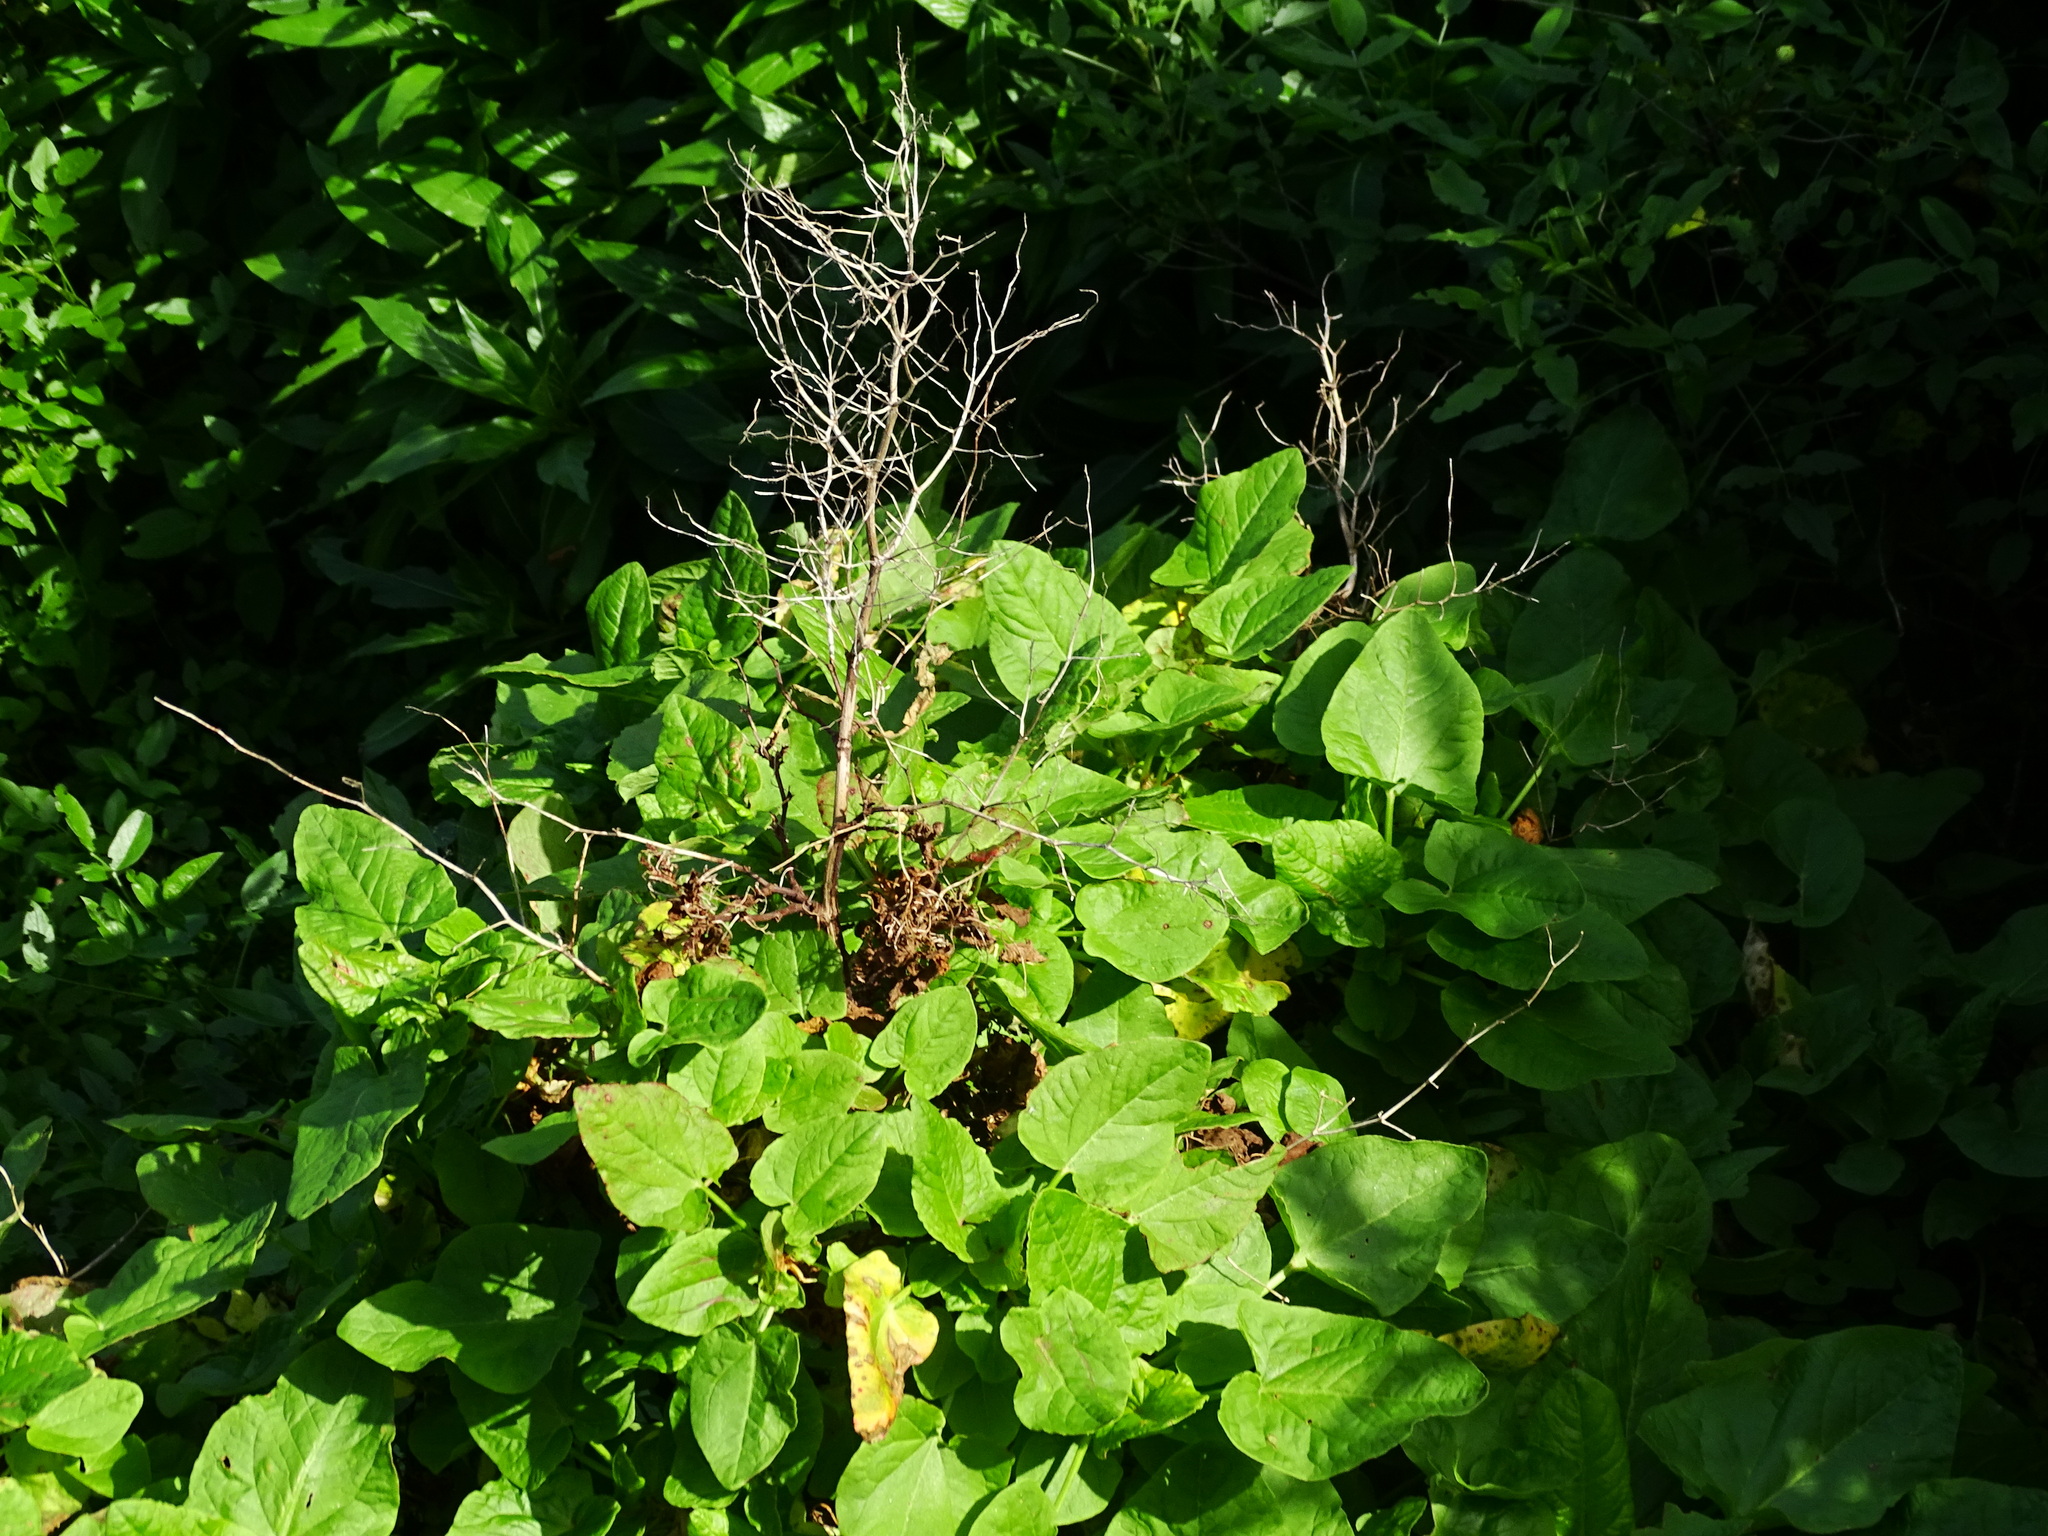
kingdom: Plantae
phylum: Tracheophyta
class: Magnoliopsida
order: Caryophyllales
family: Polygonaceae
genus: Rumex
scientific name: Rumex maderensis
